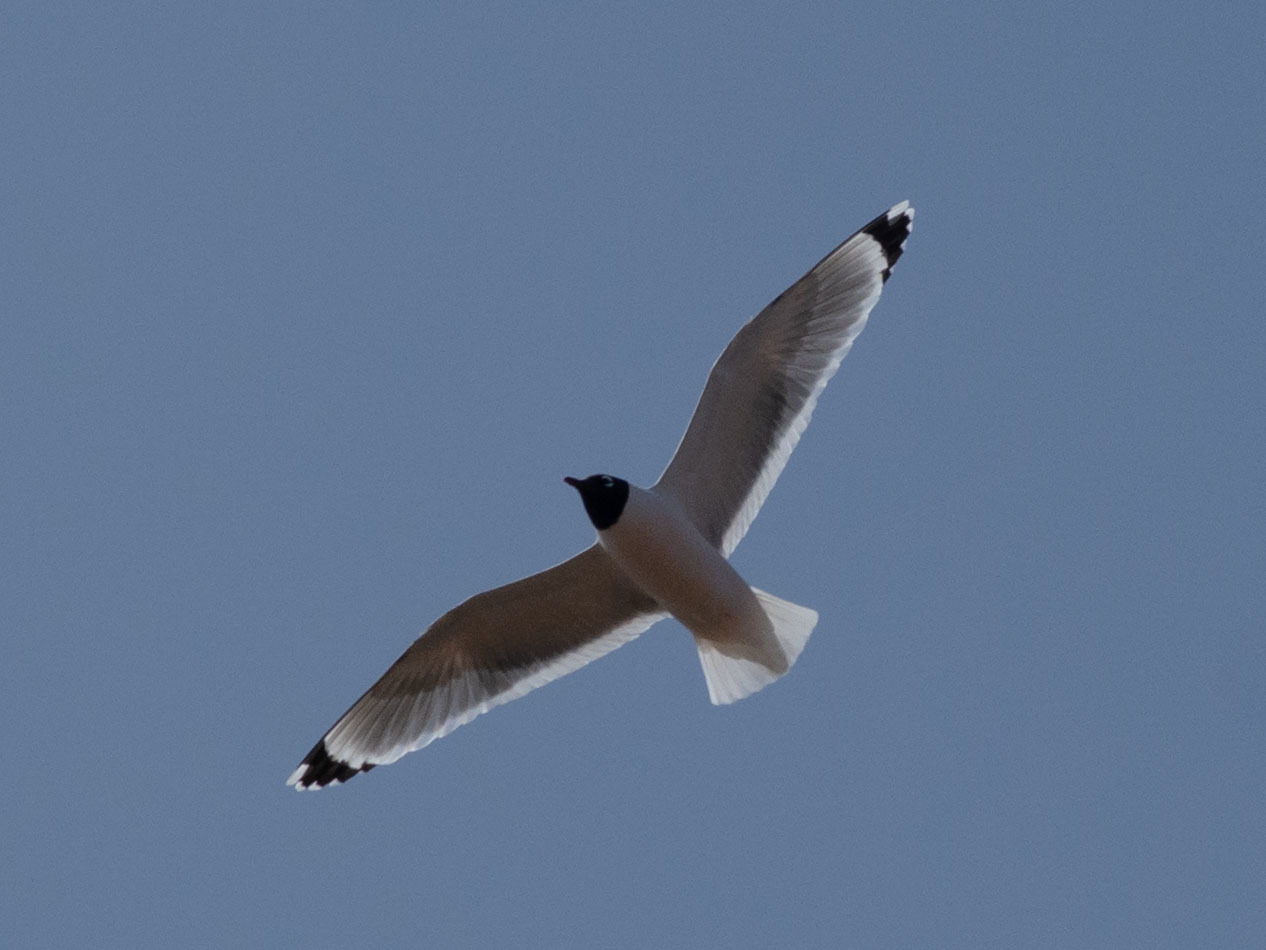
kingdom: Animalia
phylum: Chordata
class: Aves
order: Charadriiformes
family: Laridae
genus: Leucophaeus
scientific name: Leucophaeus pipixcan
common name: Franklin's gull
